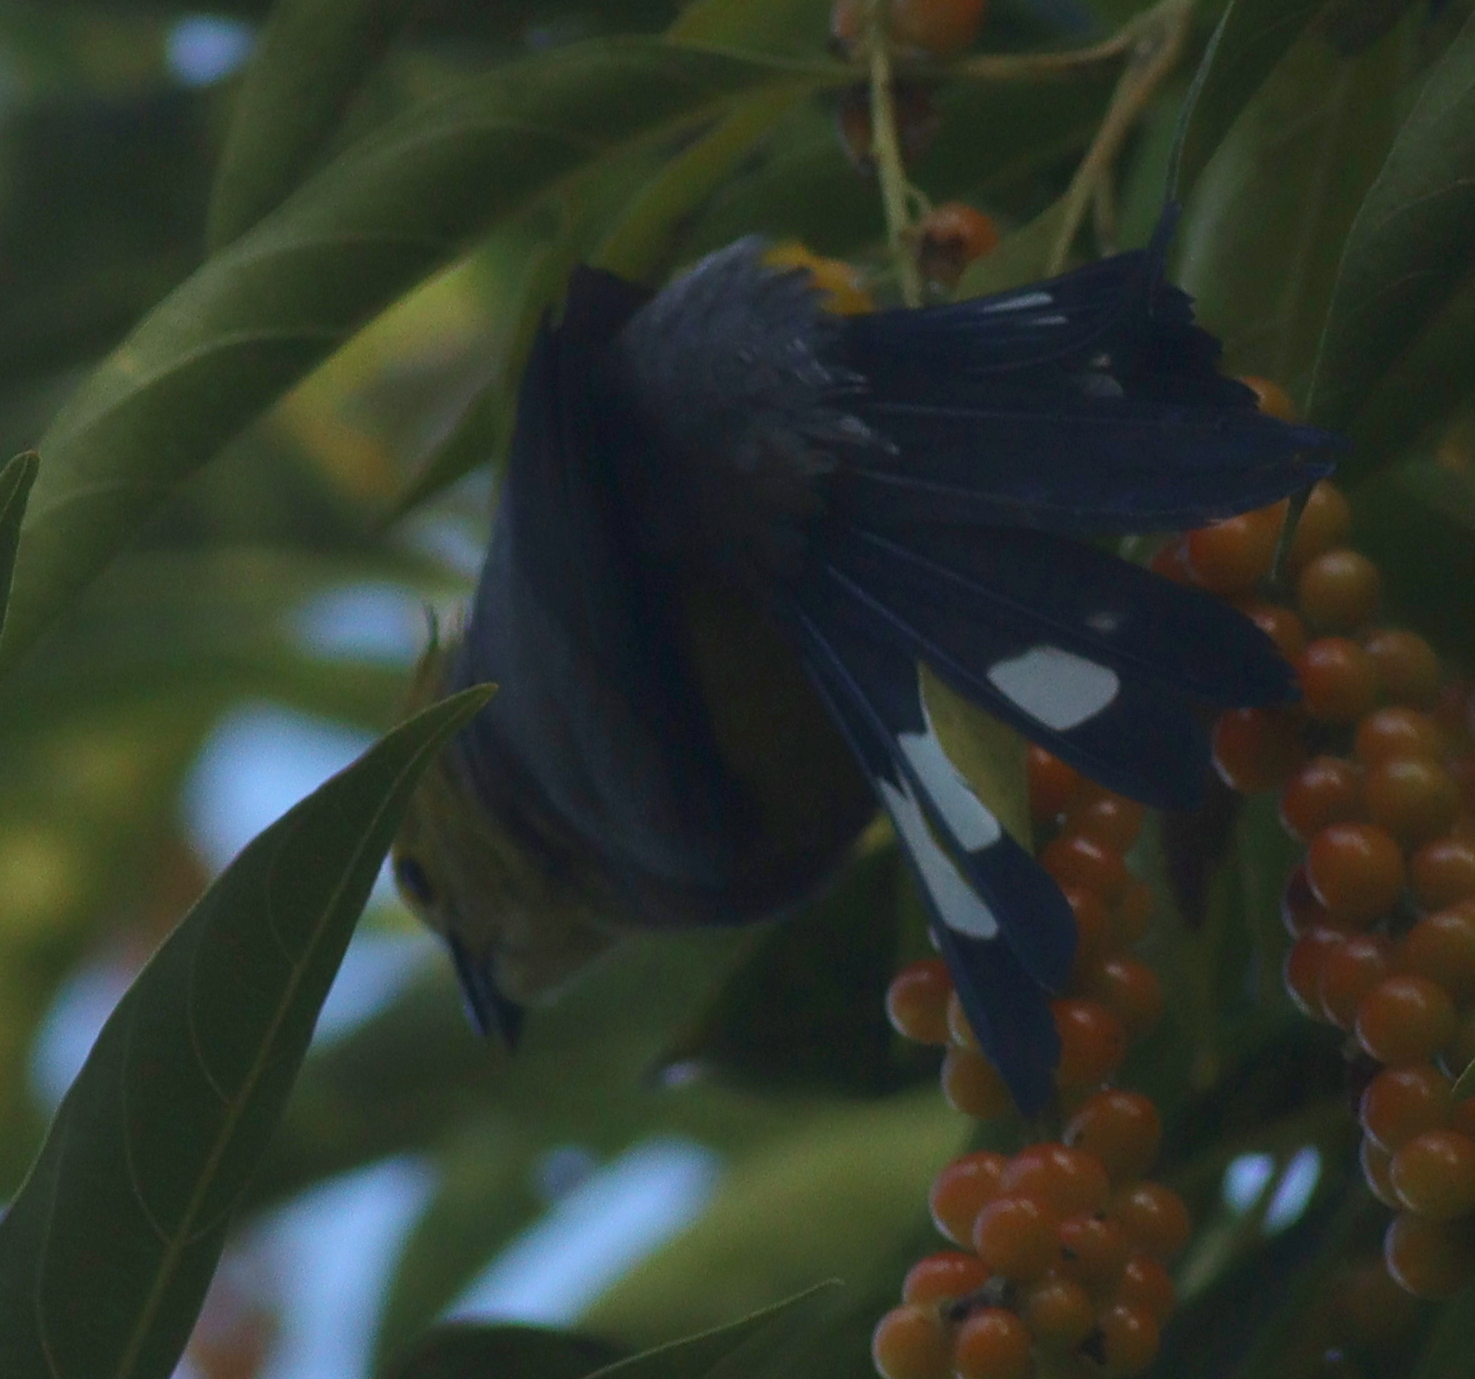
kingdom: Animalia
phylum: Chordata
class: Aves
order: Passeriformes
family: Ptilogonatidae
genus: Ptilogonys
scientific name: Ptilogonys caudatus
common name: Long-tailed silky-flycatcher
